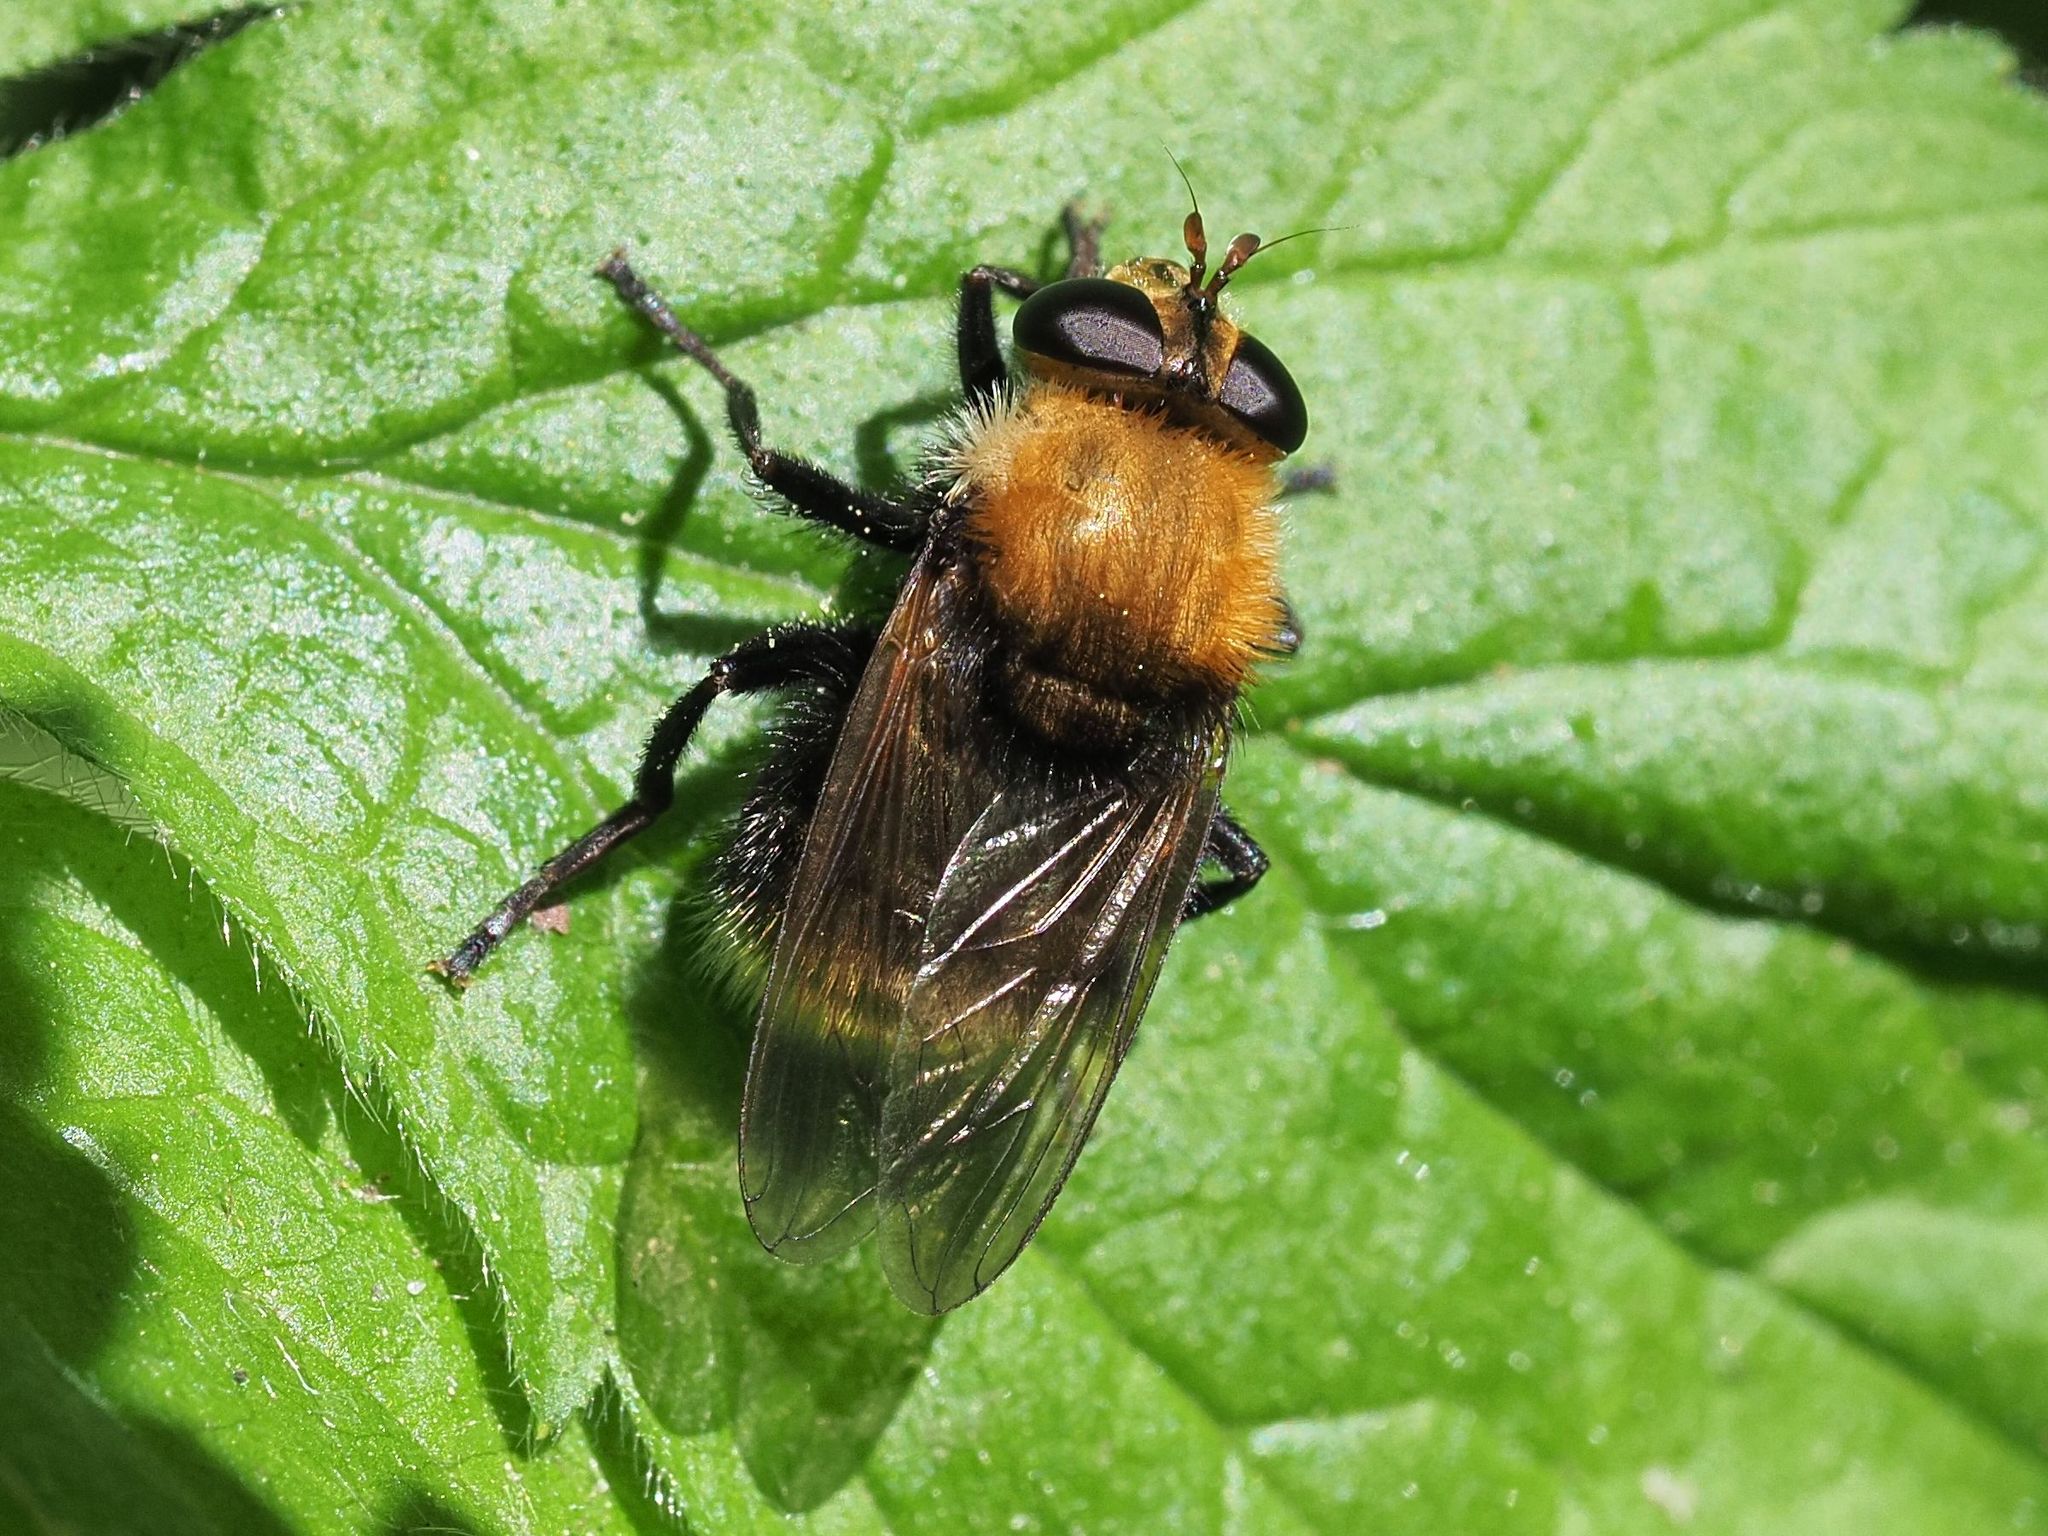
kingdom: Animalia
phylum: Arthropoda
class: Insecta
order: Diptera
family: Syrphidae
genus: Criorhina
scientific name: Criorhina berberina
